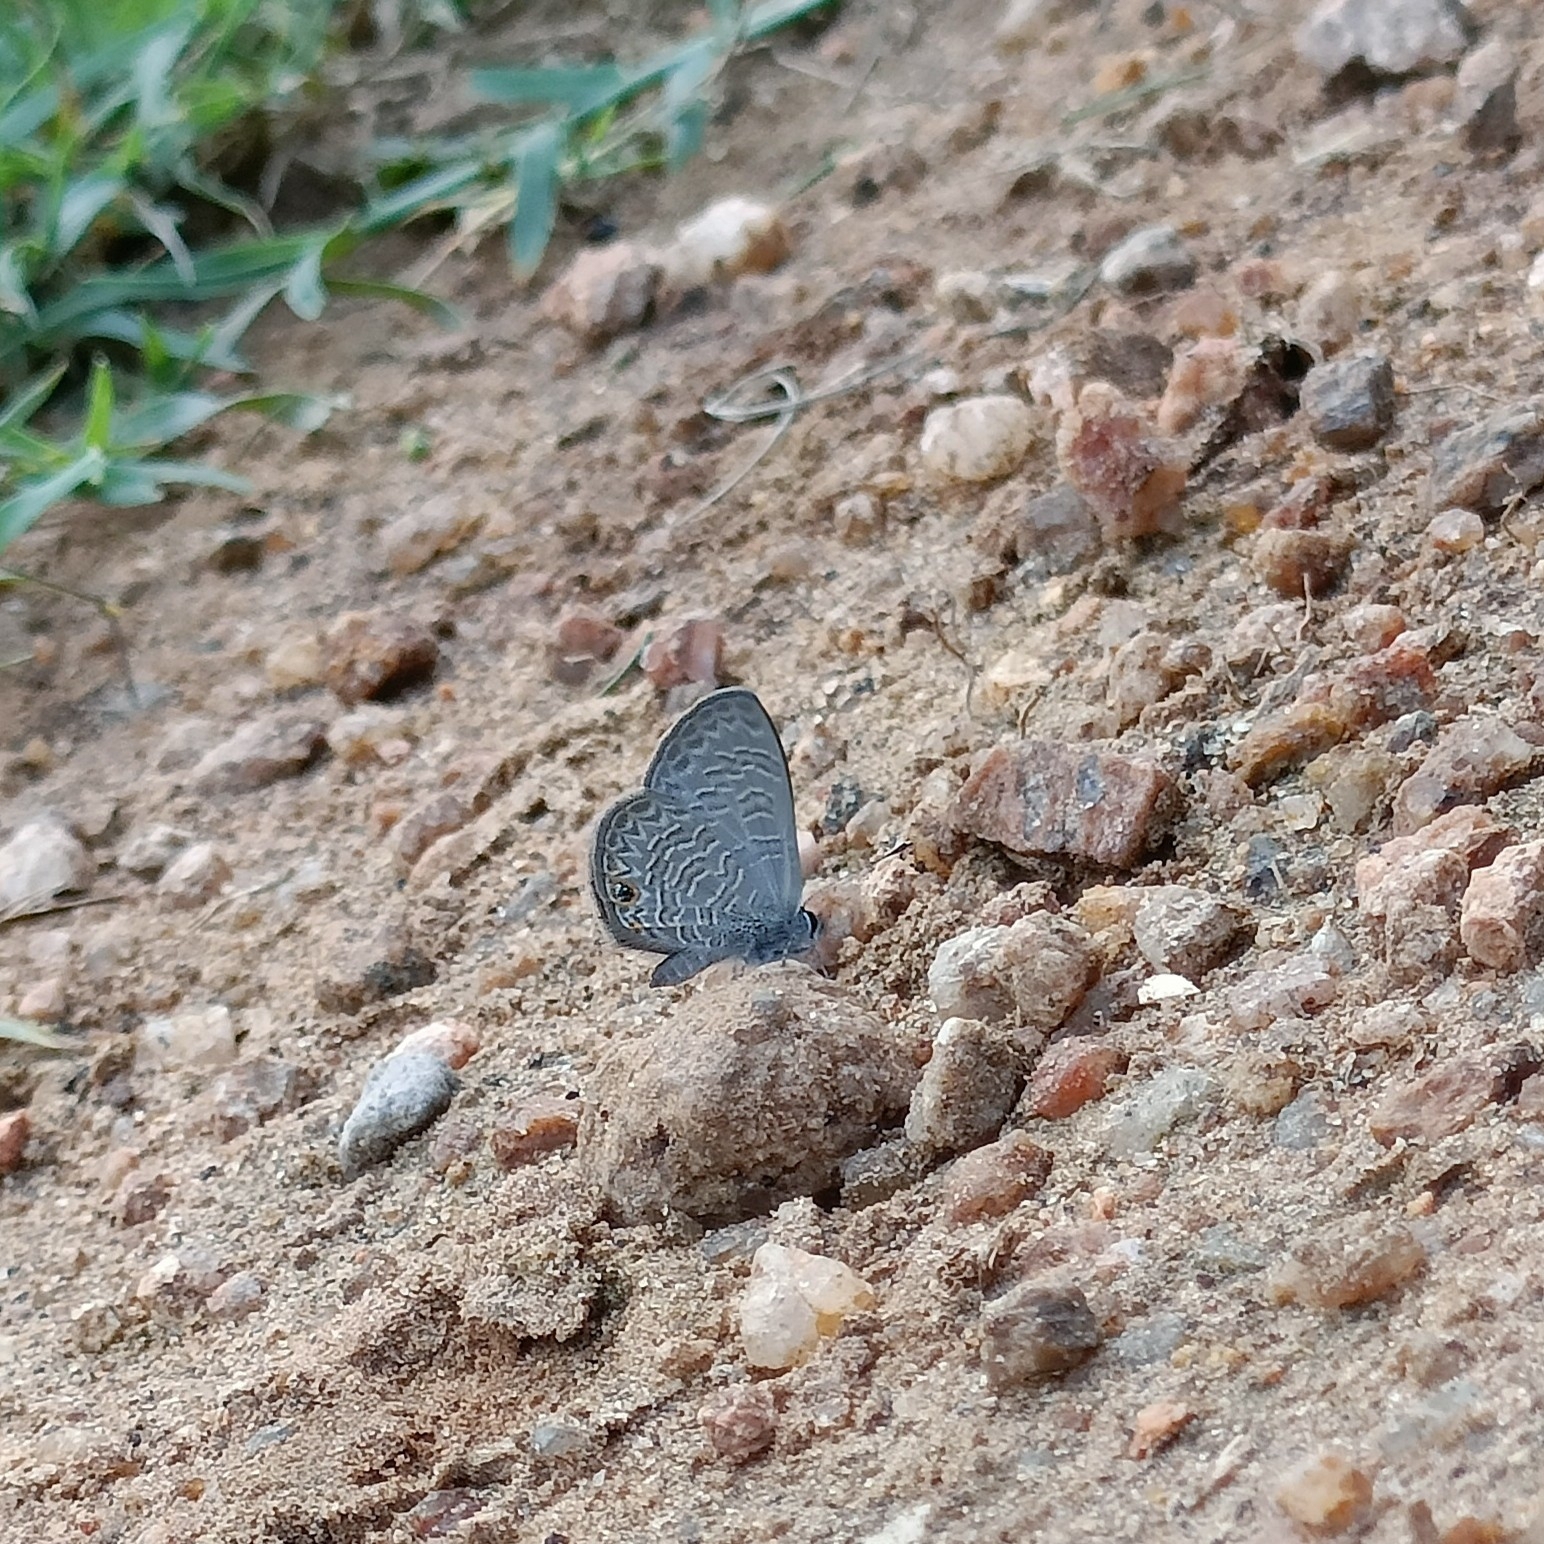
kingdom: Animalia
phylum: Arthropoda
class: Insecta
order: Lepidoptera
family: Lycaenidae
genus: Prosotas
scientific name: Prosotas dubiosa
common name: Tailless lineblue
